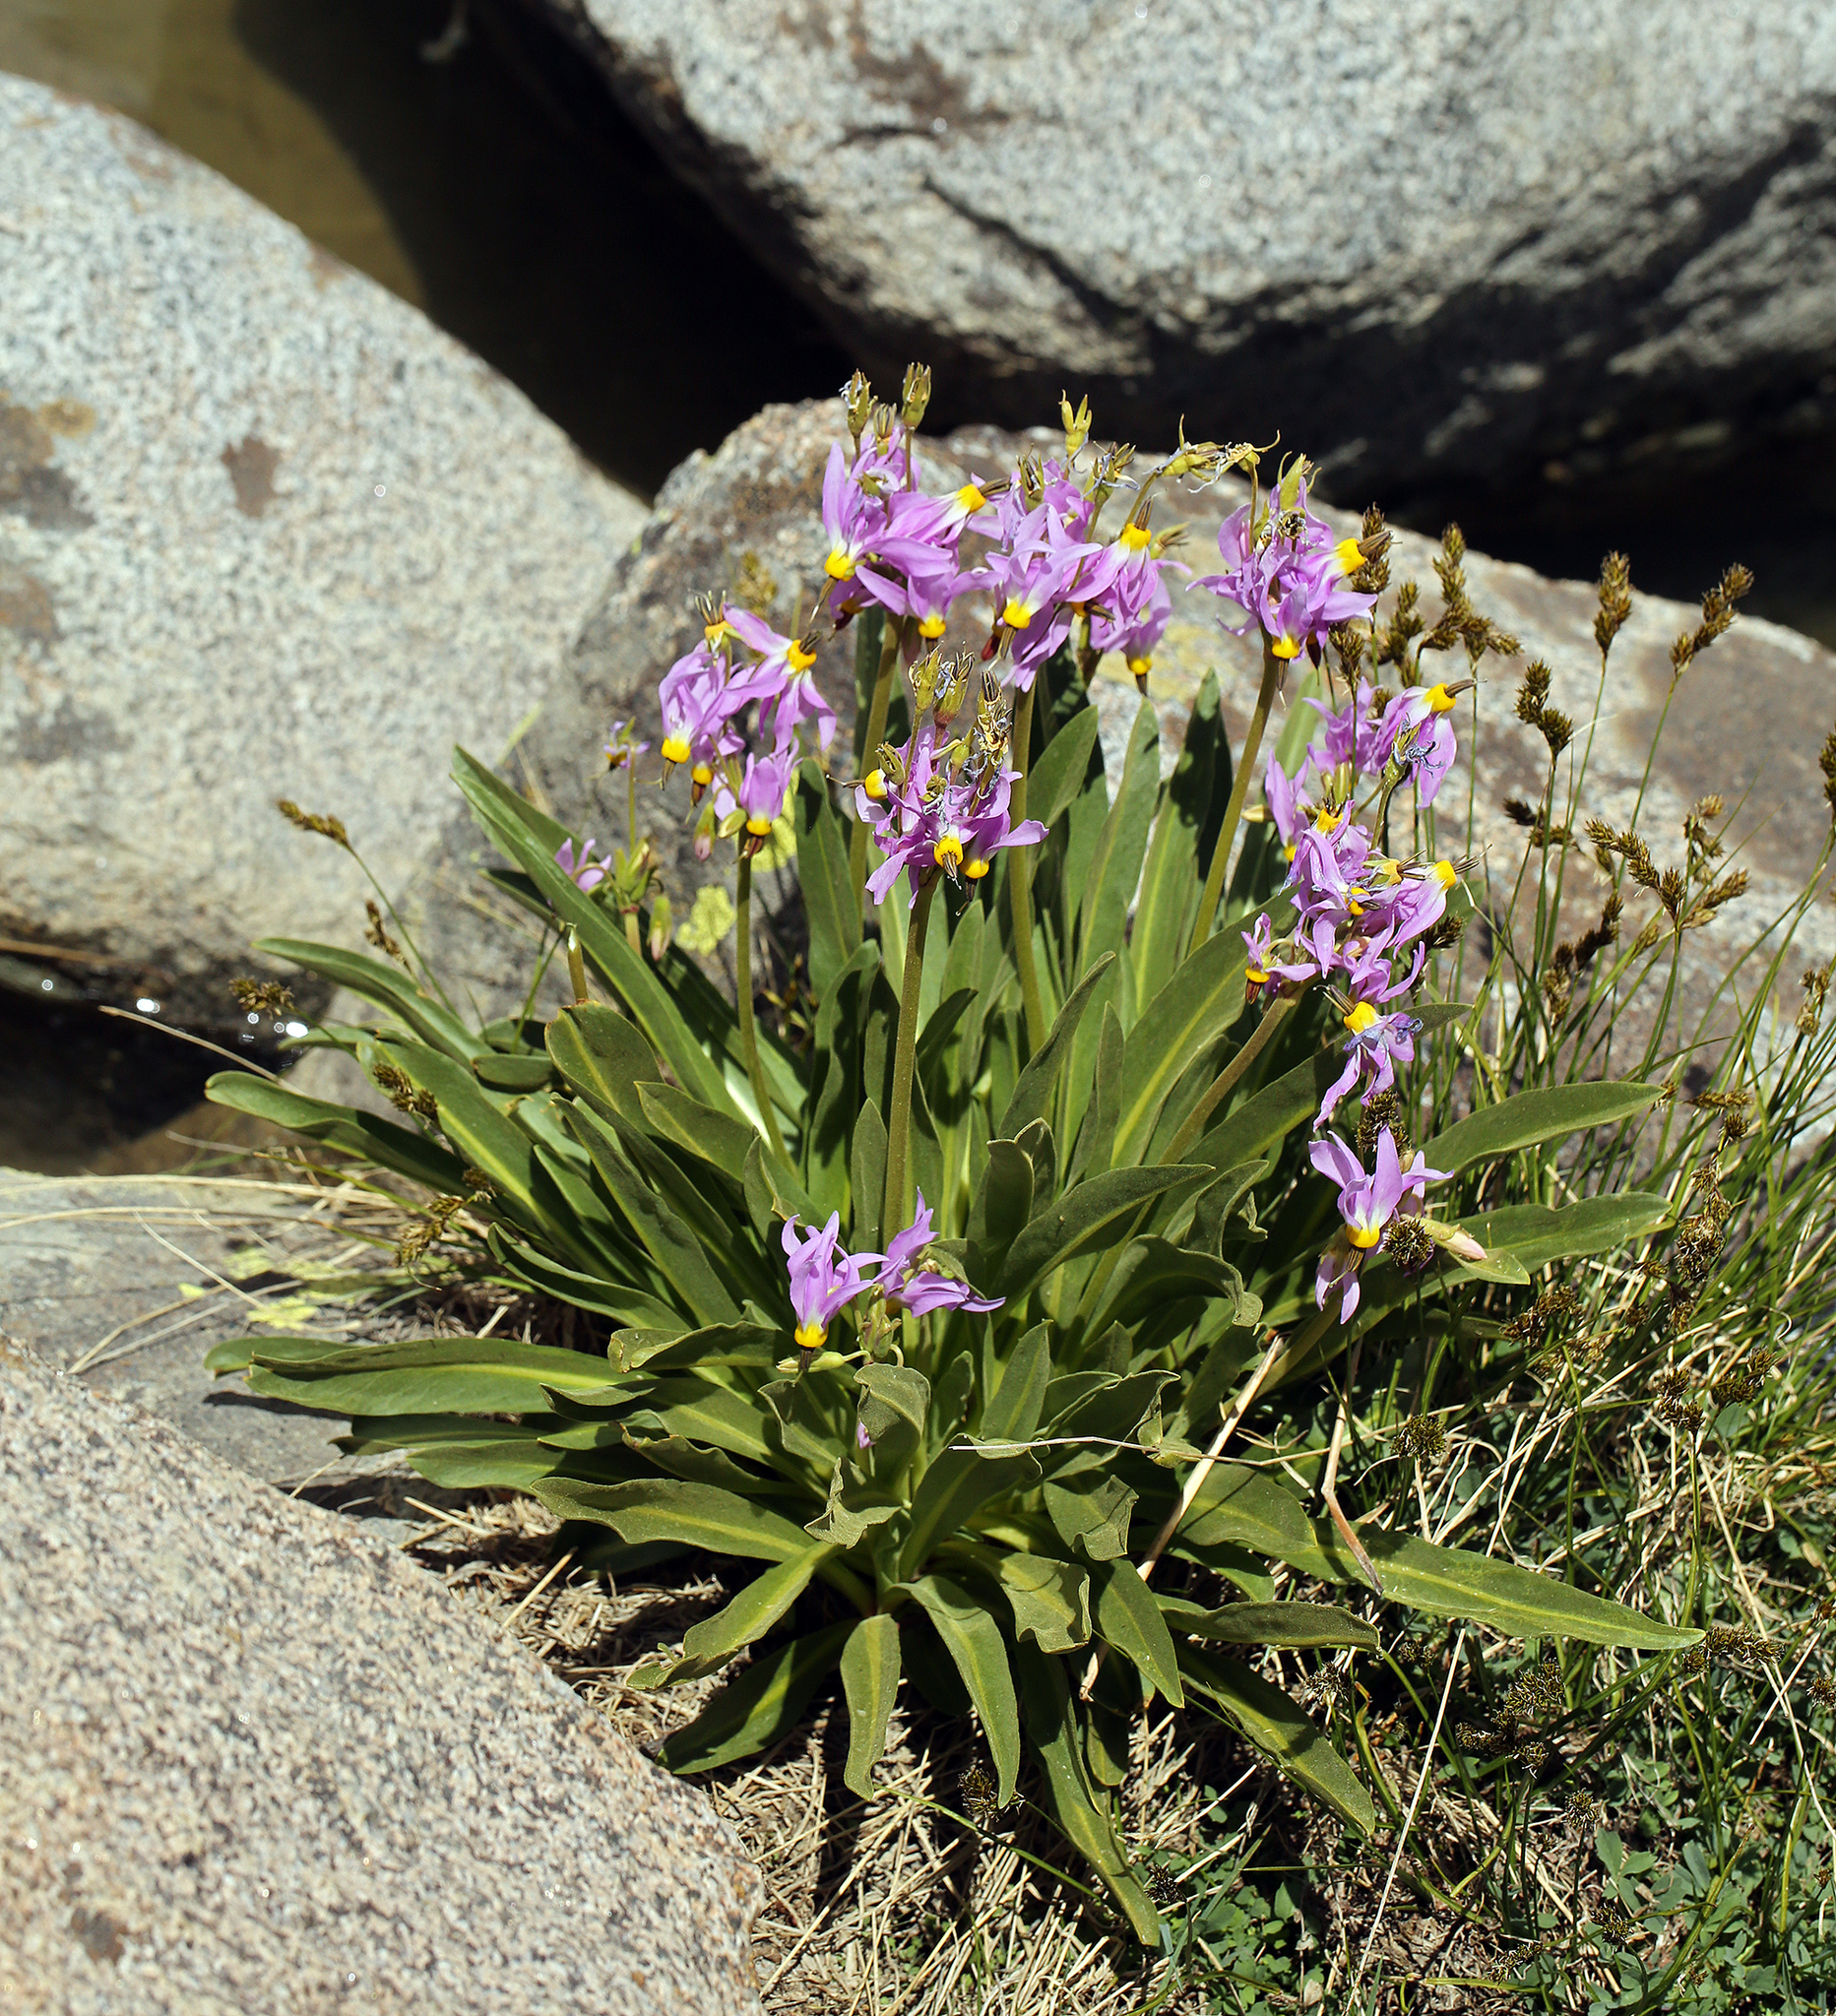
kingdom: Plantae
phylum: Tracheophyta
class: Magnoliopsida
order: Ericales
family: Primulaceae
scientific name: Primulaceae
